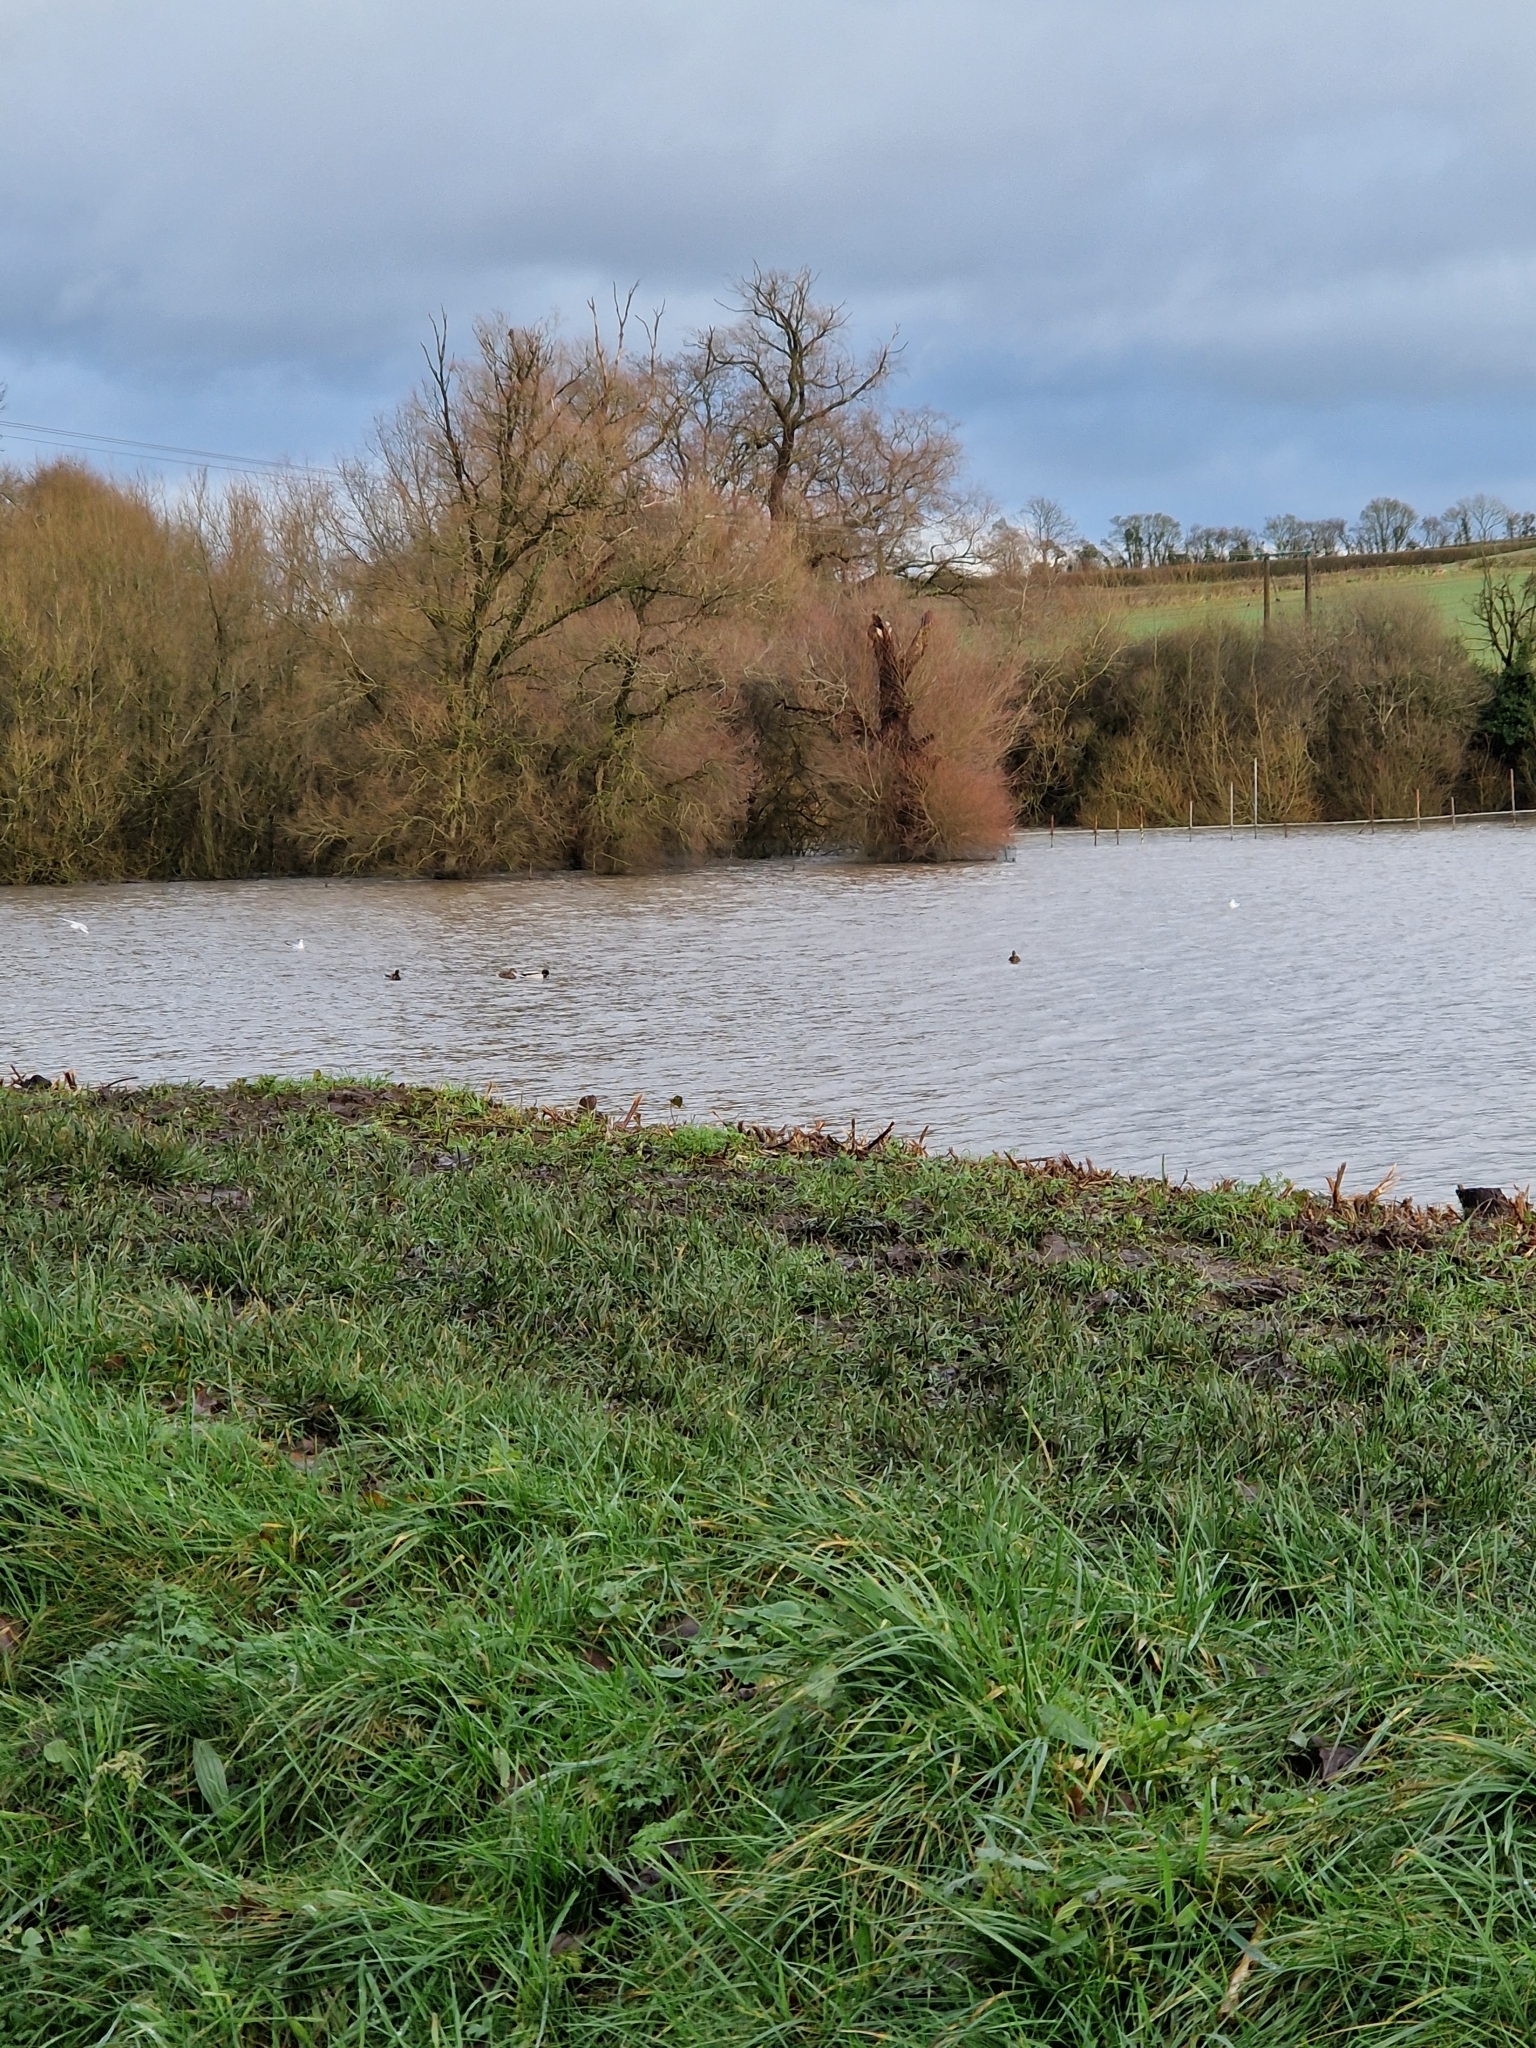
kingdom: Animalia
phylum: Chordata
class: Aves
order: Anseriformes
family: Anatidae
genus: Anas
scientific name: Anas platyrhynchos
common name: Mallard
